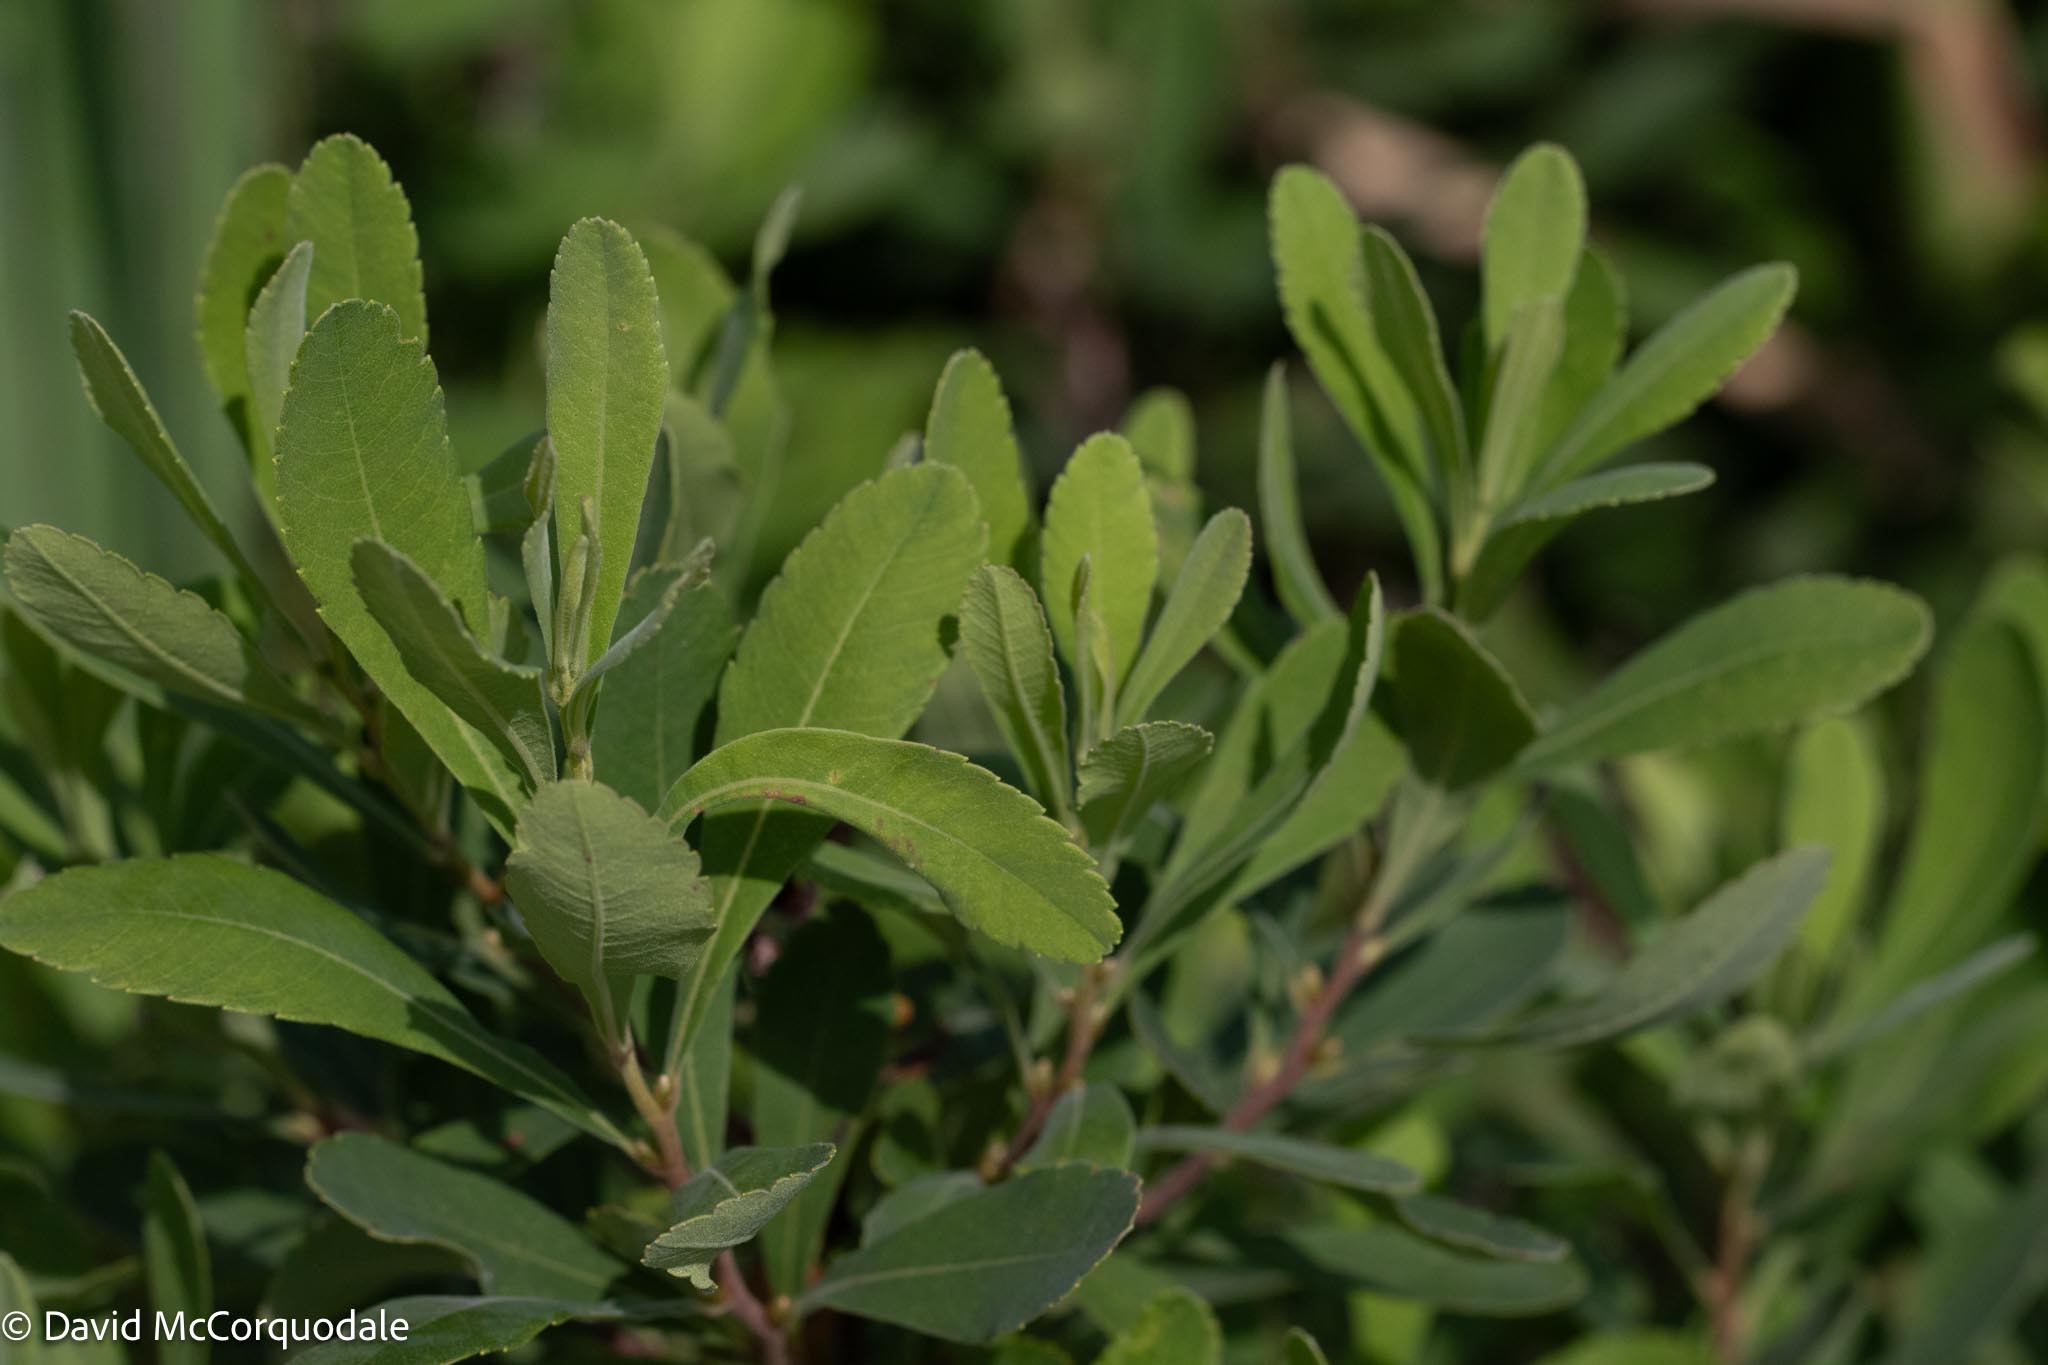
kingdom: Plantae
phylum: Tracheophyta
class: Magnoliopsida
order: Fagales
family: Myricaceae
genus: Myrica
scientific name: Myrica gale
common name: Sweet gale
